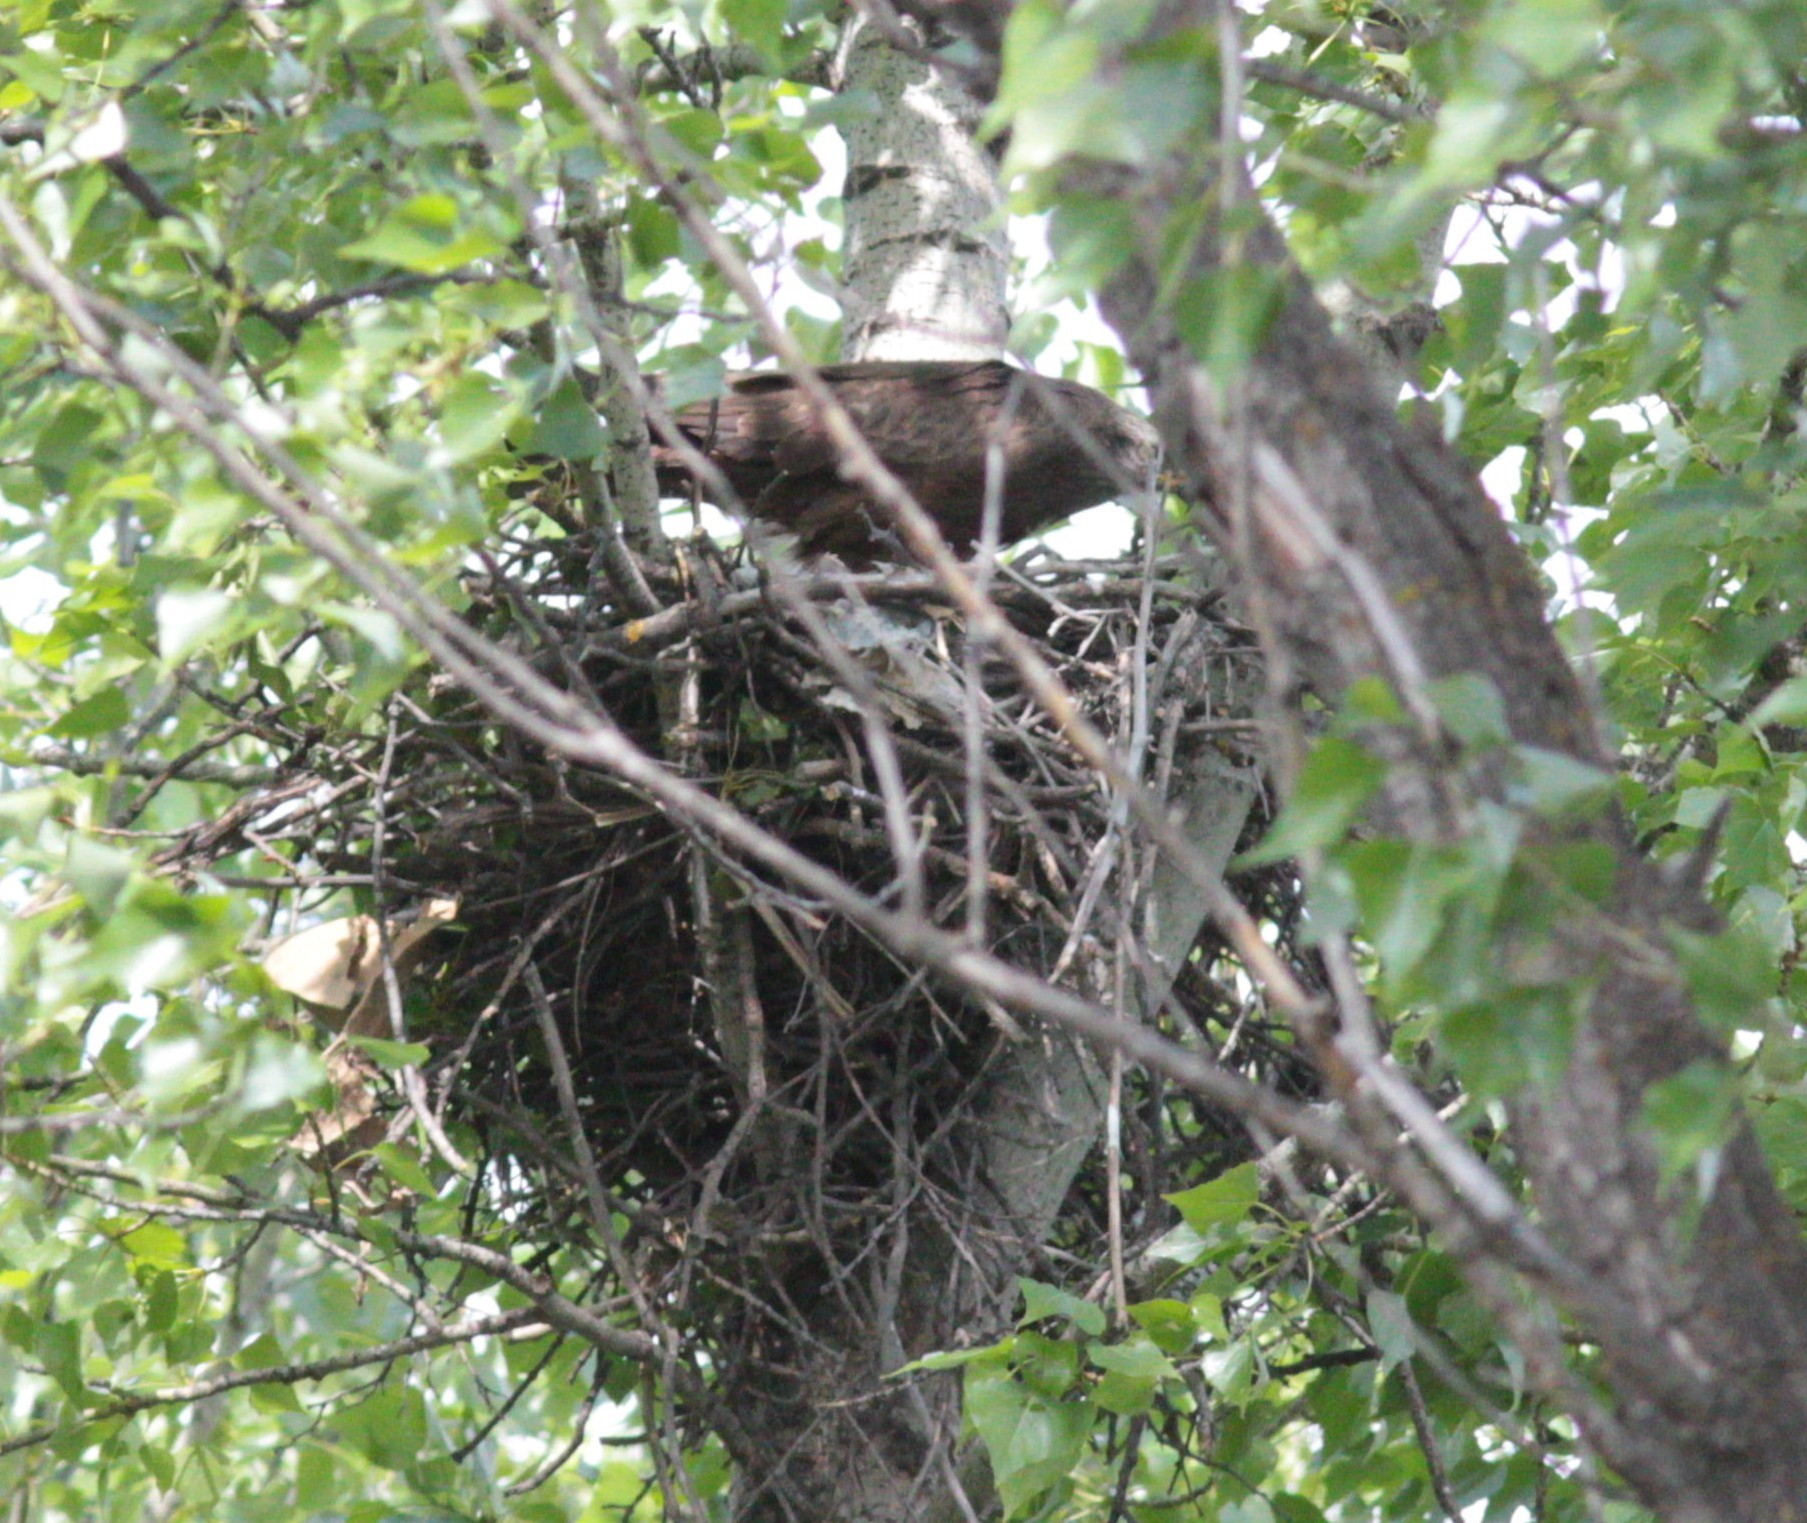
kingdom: Animalia
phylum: Chordata
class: Aves
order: Accipitriformes
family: Accipitridae
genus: Milvus
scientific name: Milvus migrans
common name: Black kite
